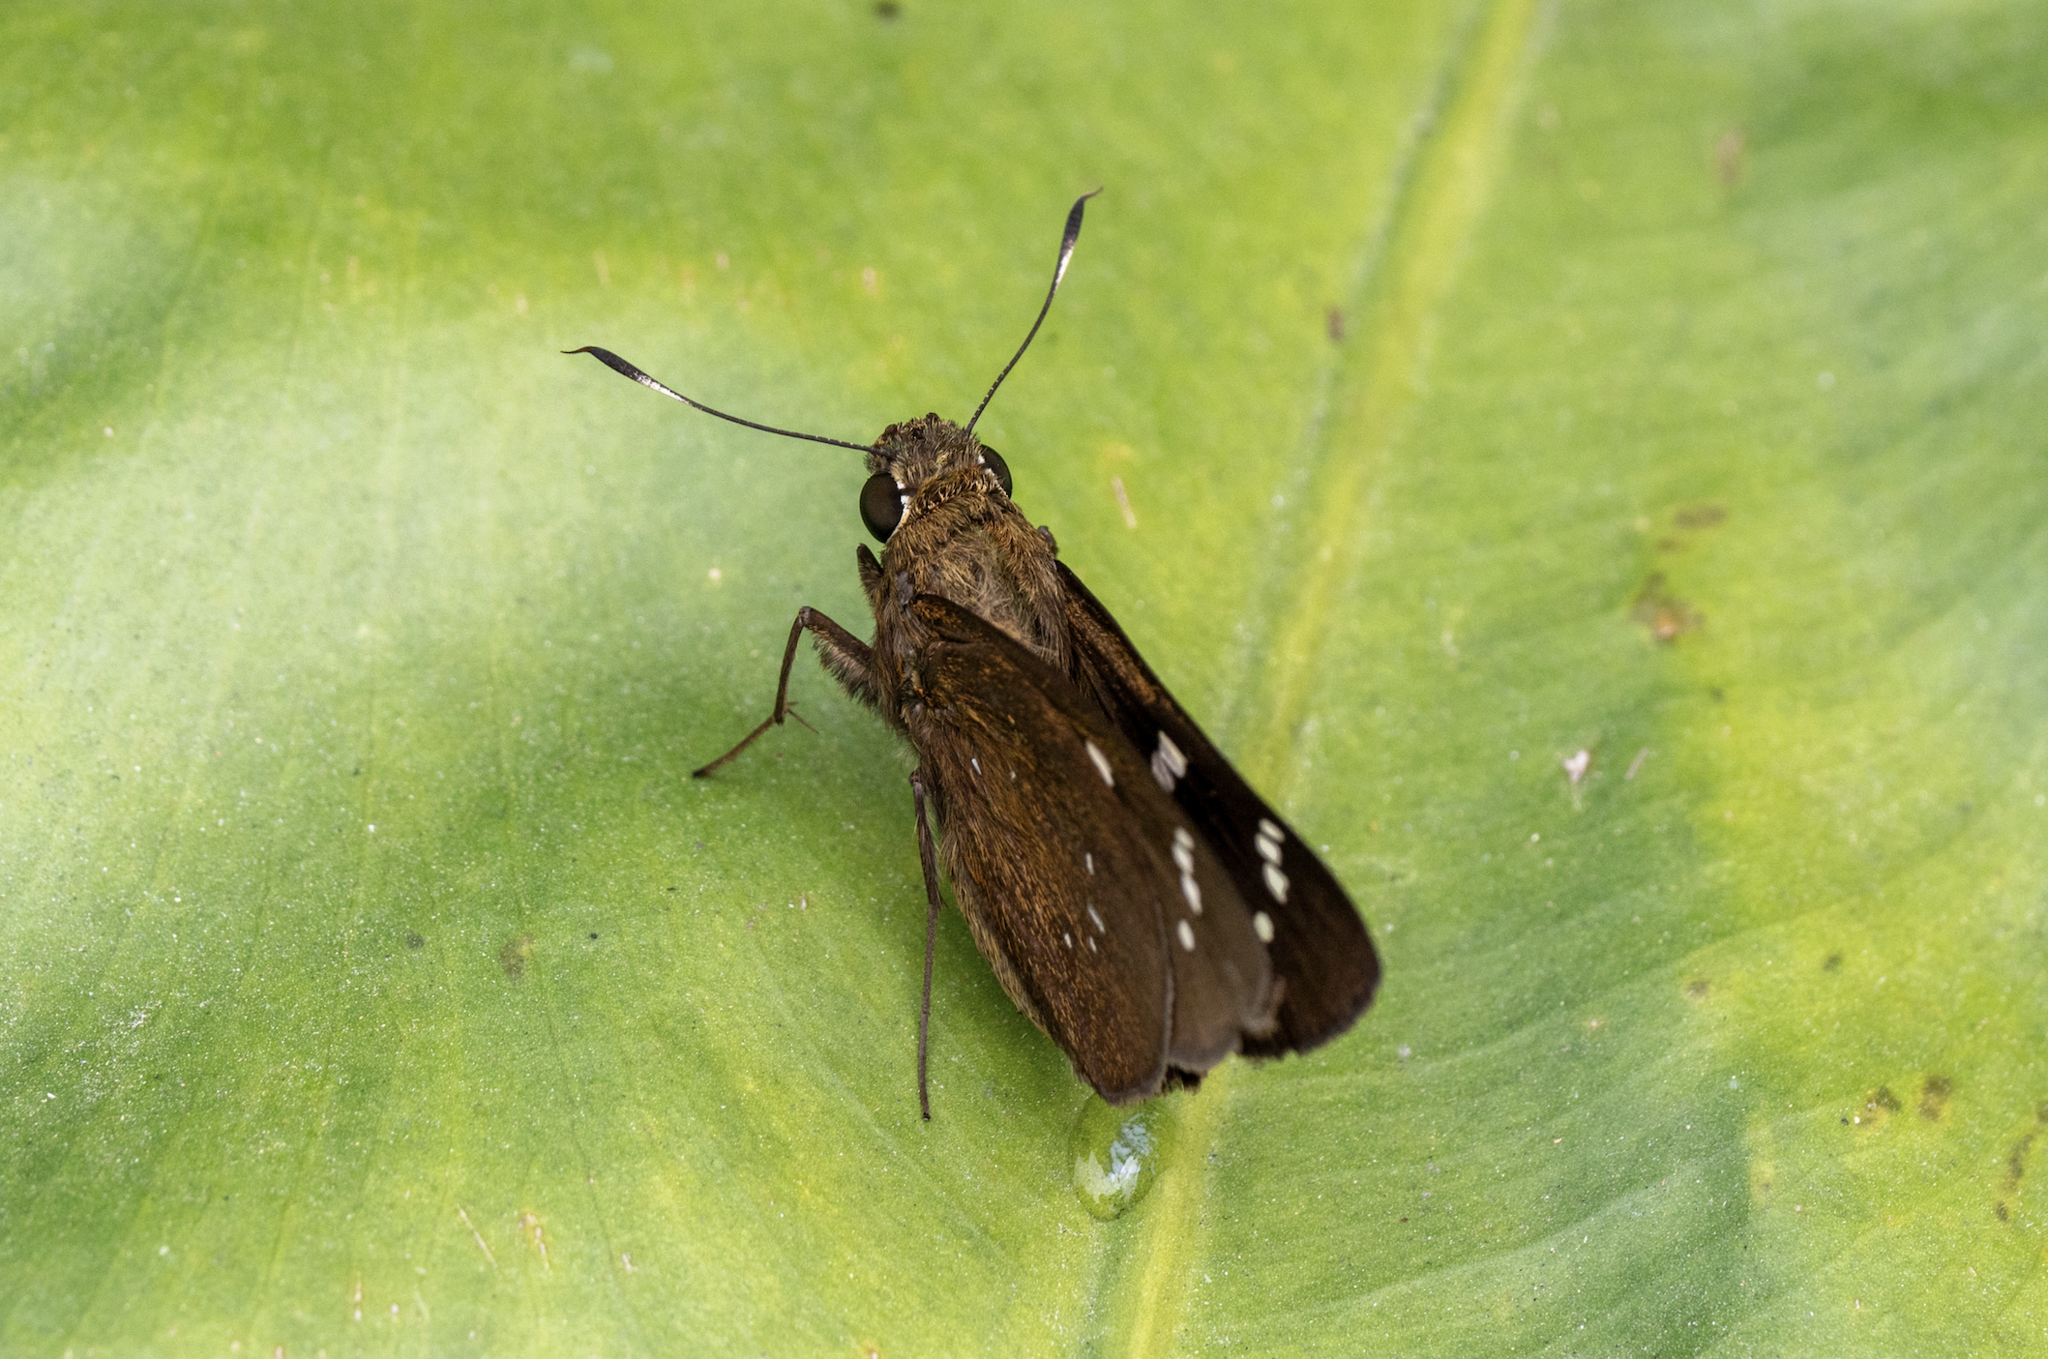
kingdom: Animalia
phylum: Arthropoda
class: Insecta
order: Lepidoptera
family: Hesperiidae
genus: Pelopidas
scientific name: Pelopidas assamensis
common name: Great swift
